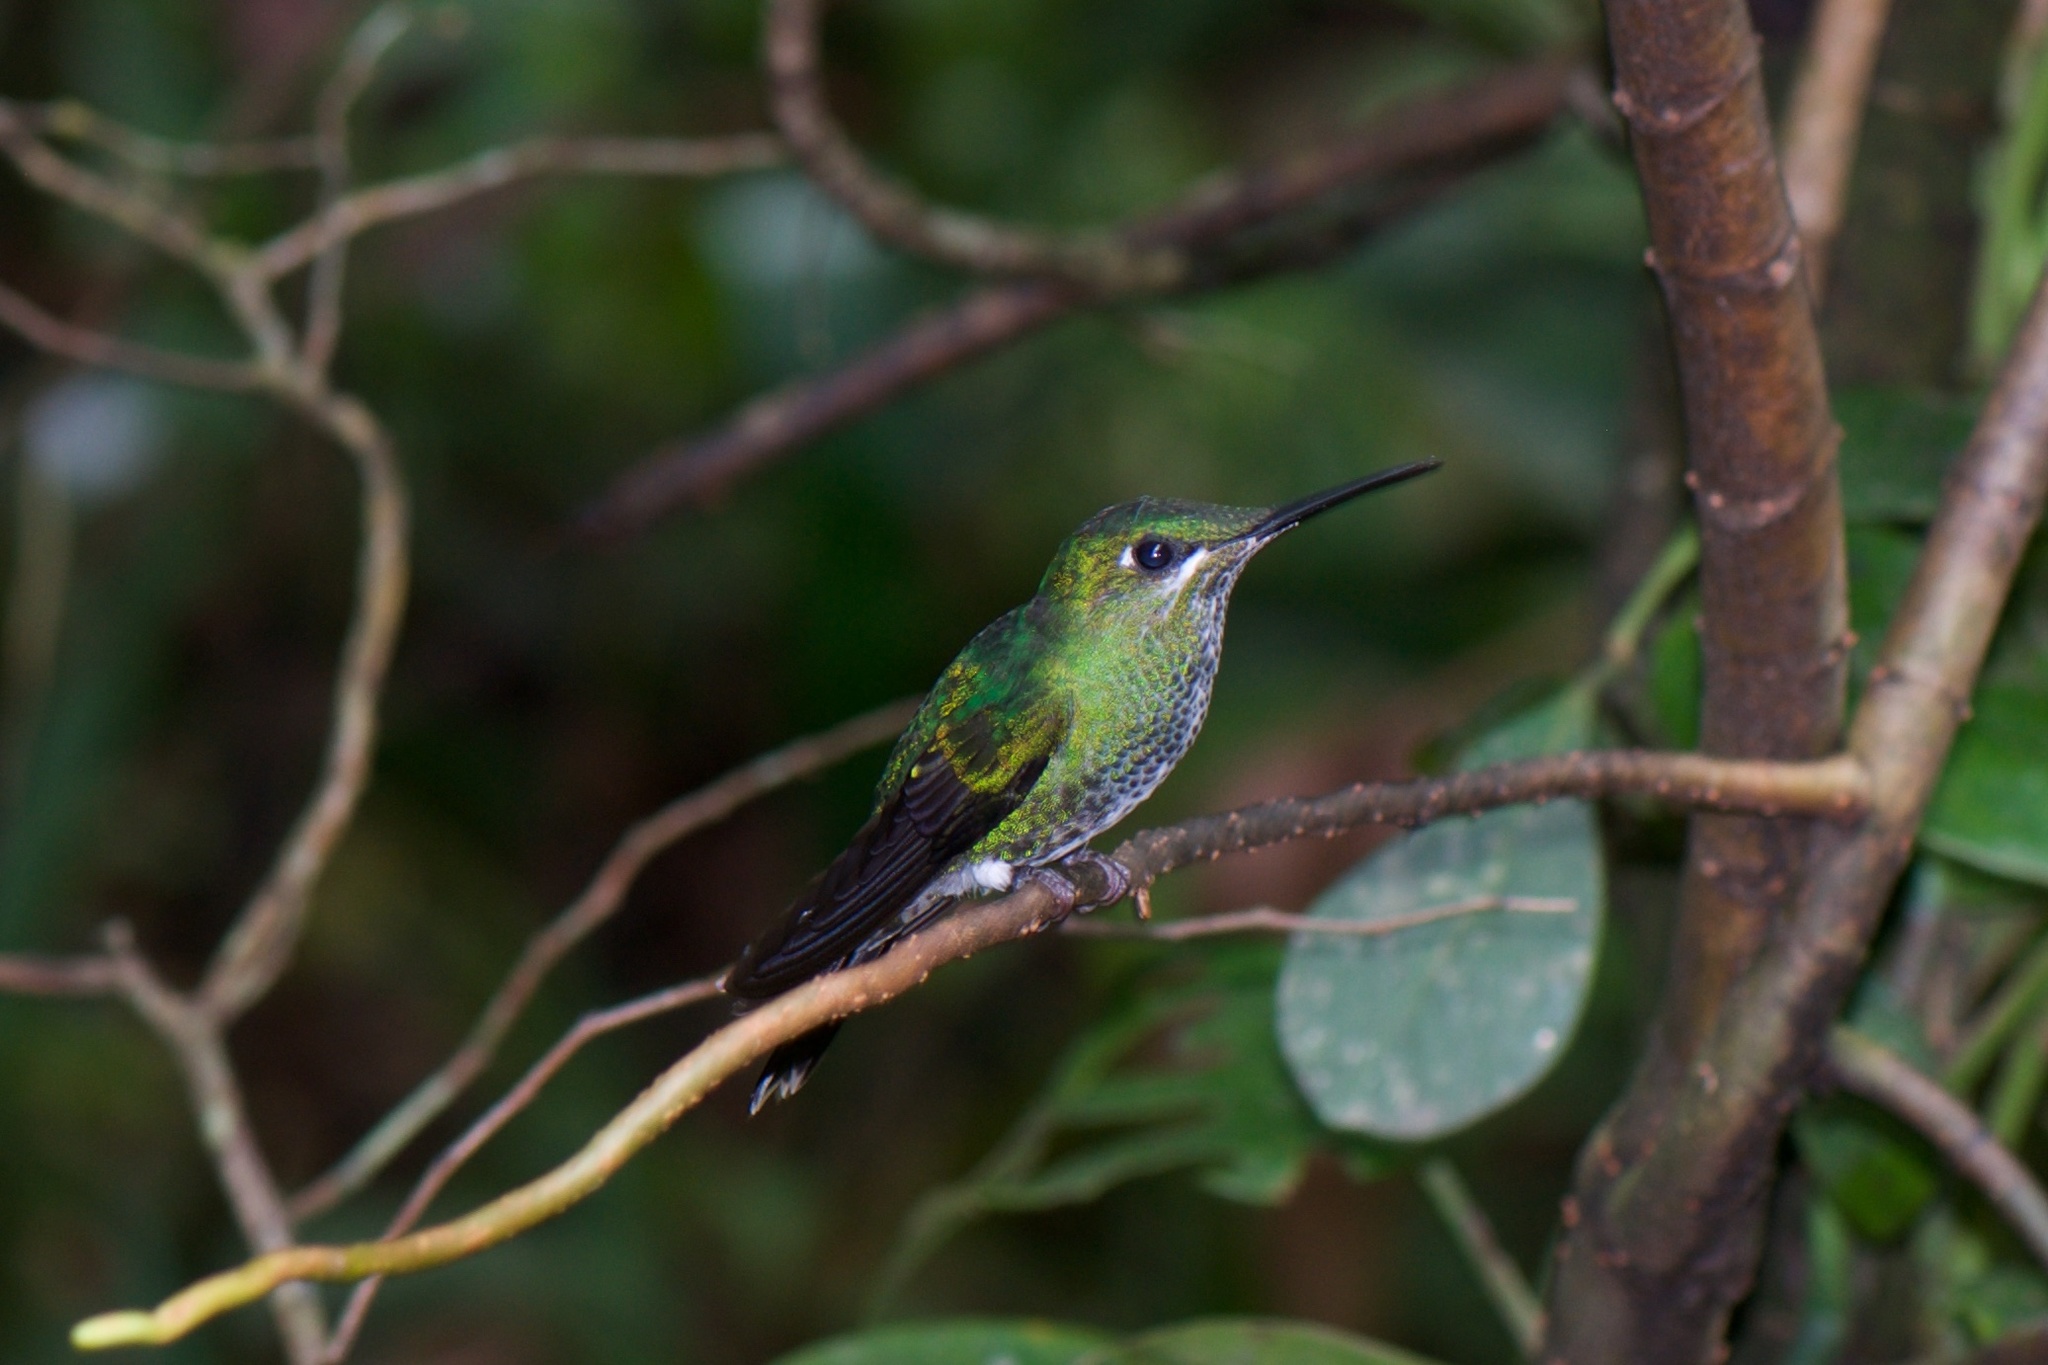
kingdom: Animalia
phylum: Chordata
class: Aves
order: Apodiformes
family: Trochilidae
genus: Heliodoxa
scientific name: Heliodoxa jacula
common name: Green-crowned brilliant
